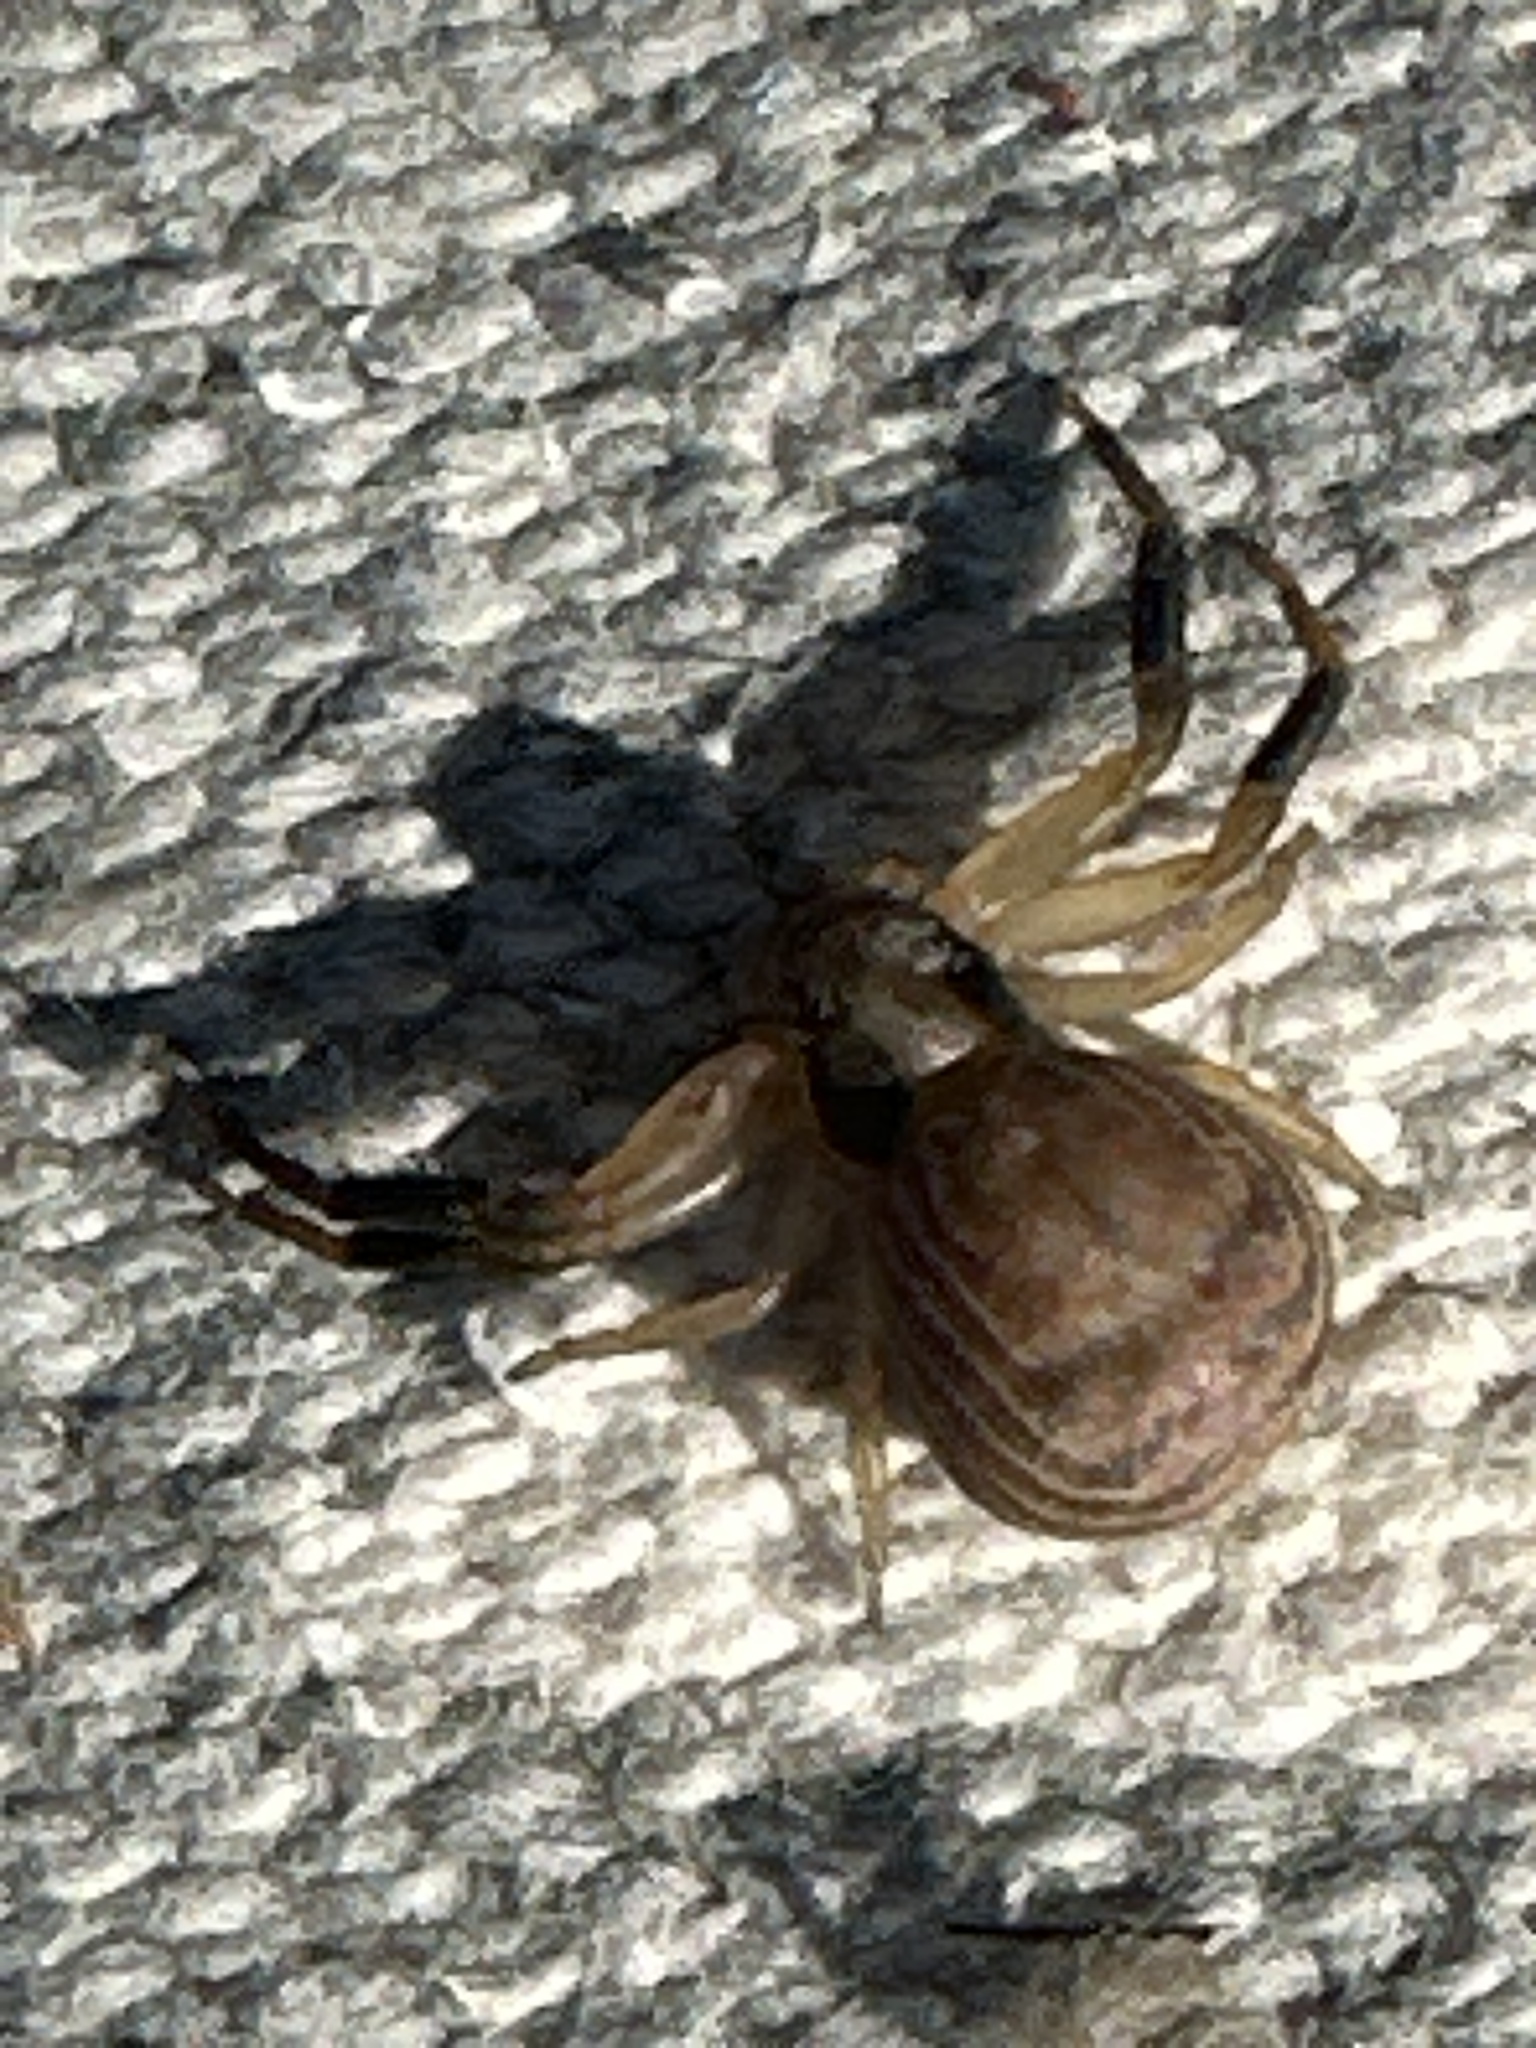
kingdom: Animalia
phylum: Arthropoda
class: Arachnida
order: Araneae
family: Thomisidae
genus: Xysticus
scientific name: Xysticus texanus
